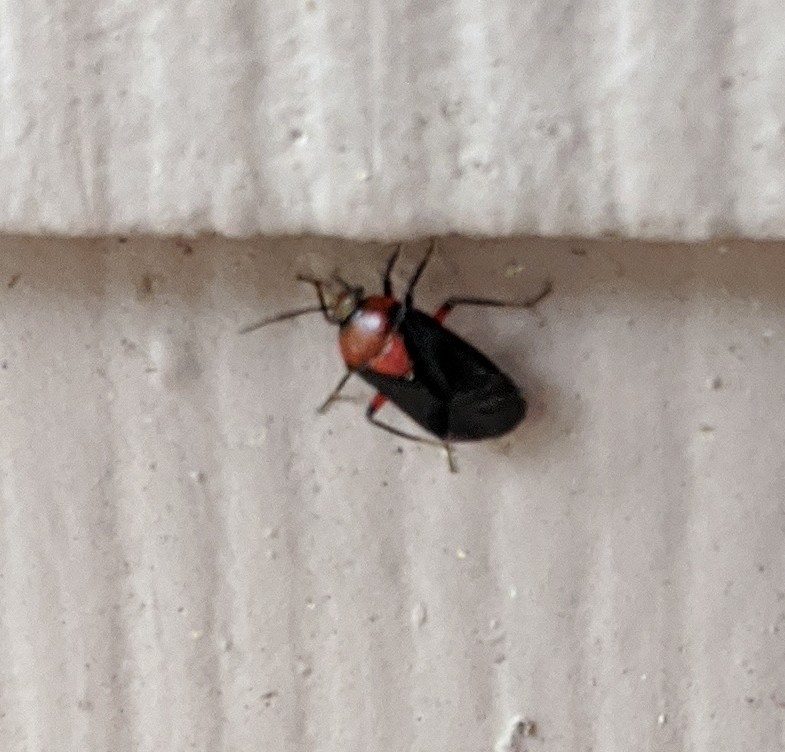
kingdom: Animalia
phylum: Arthropoda
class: Insecta
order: Hemiptera
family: Miridae
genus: Neocapsus
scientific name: Neocapsus cuneatus
